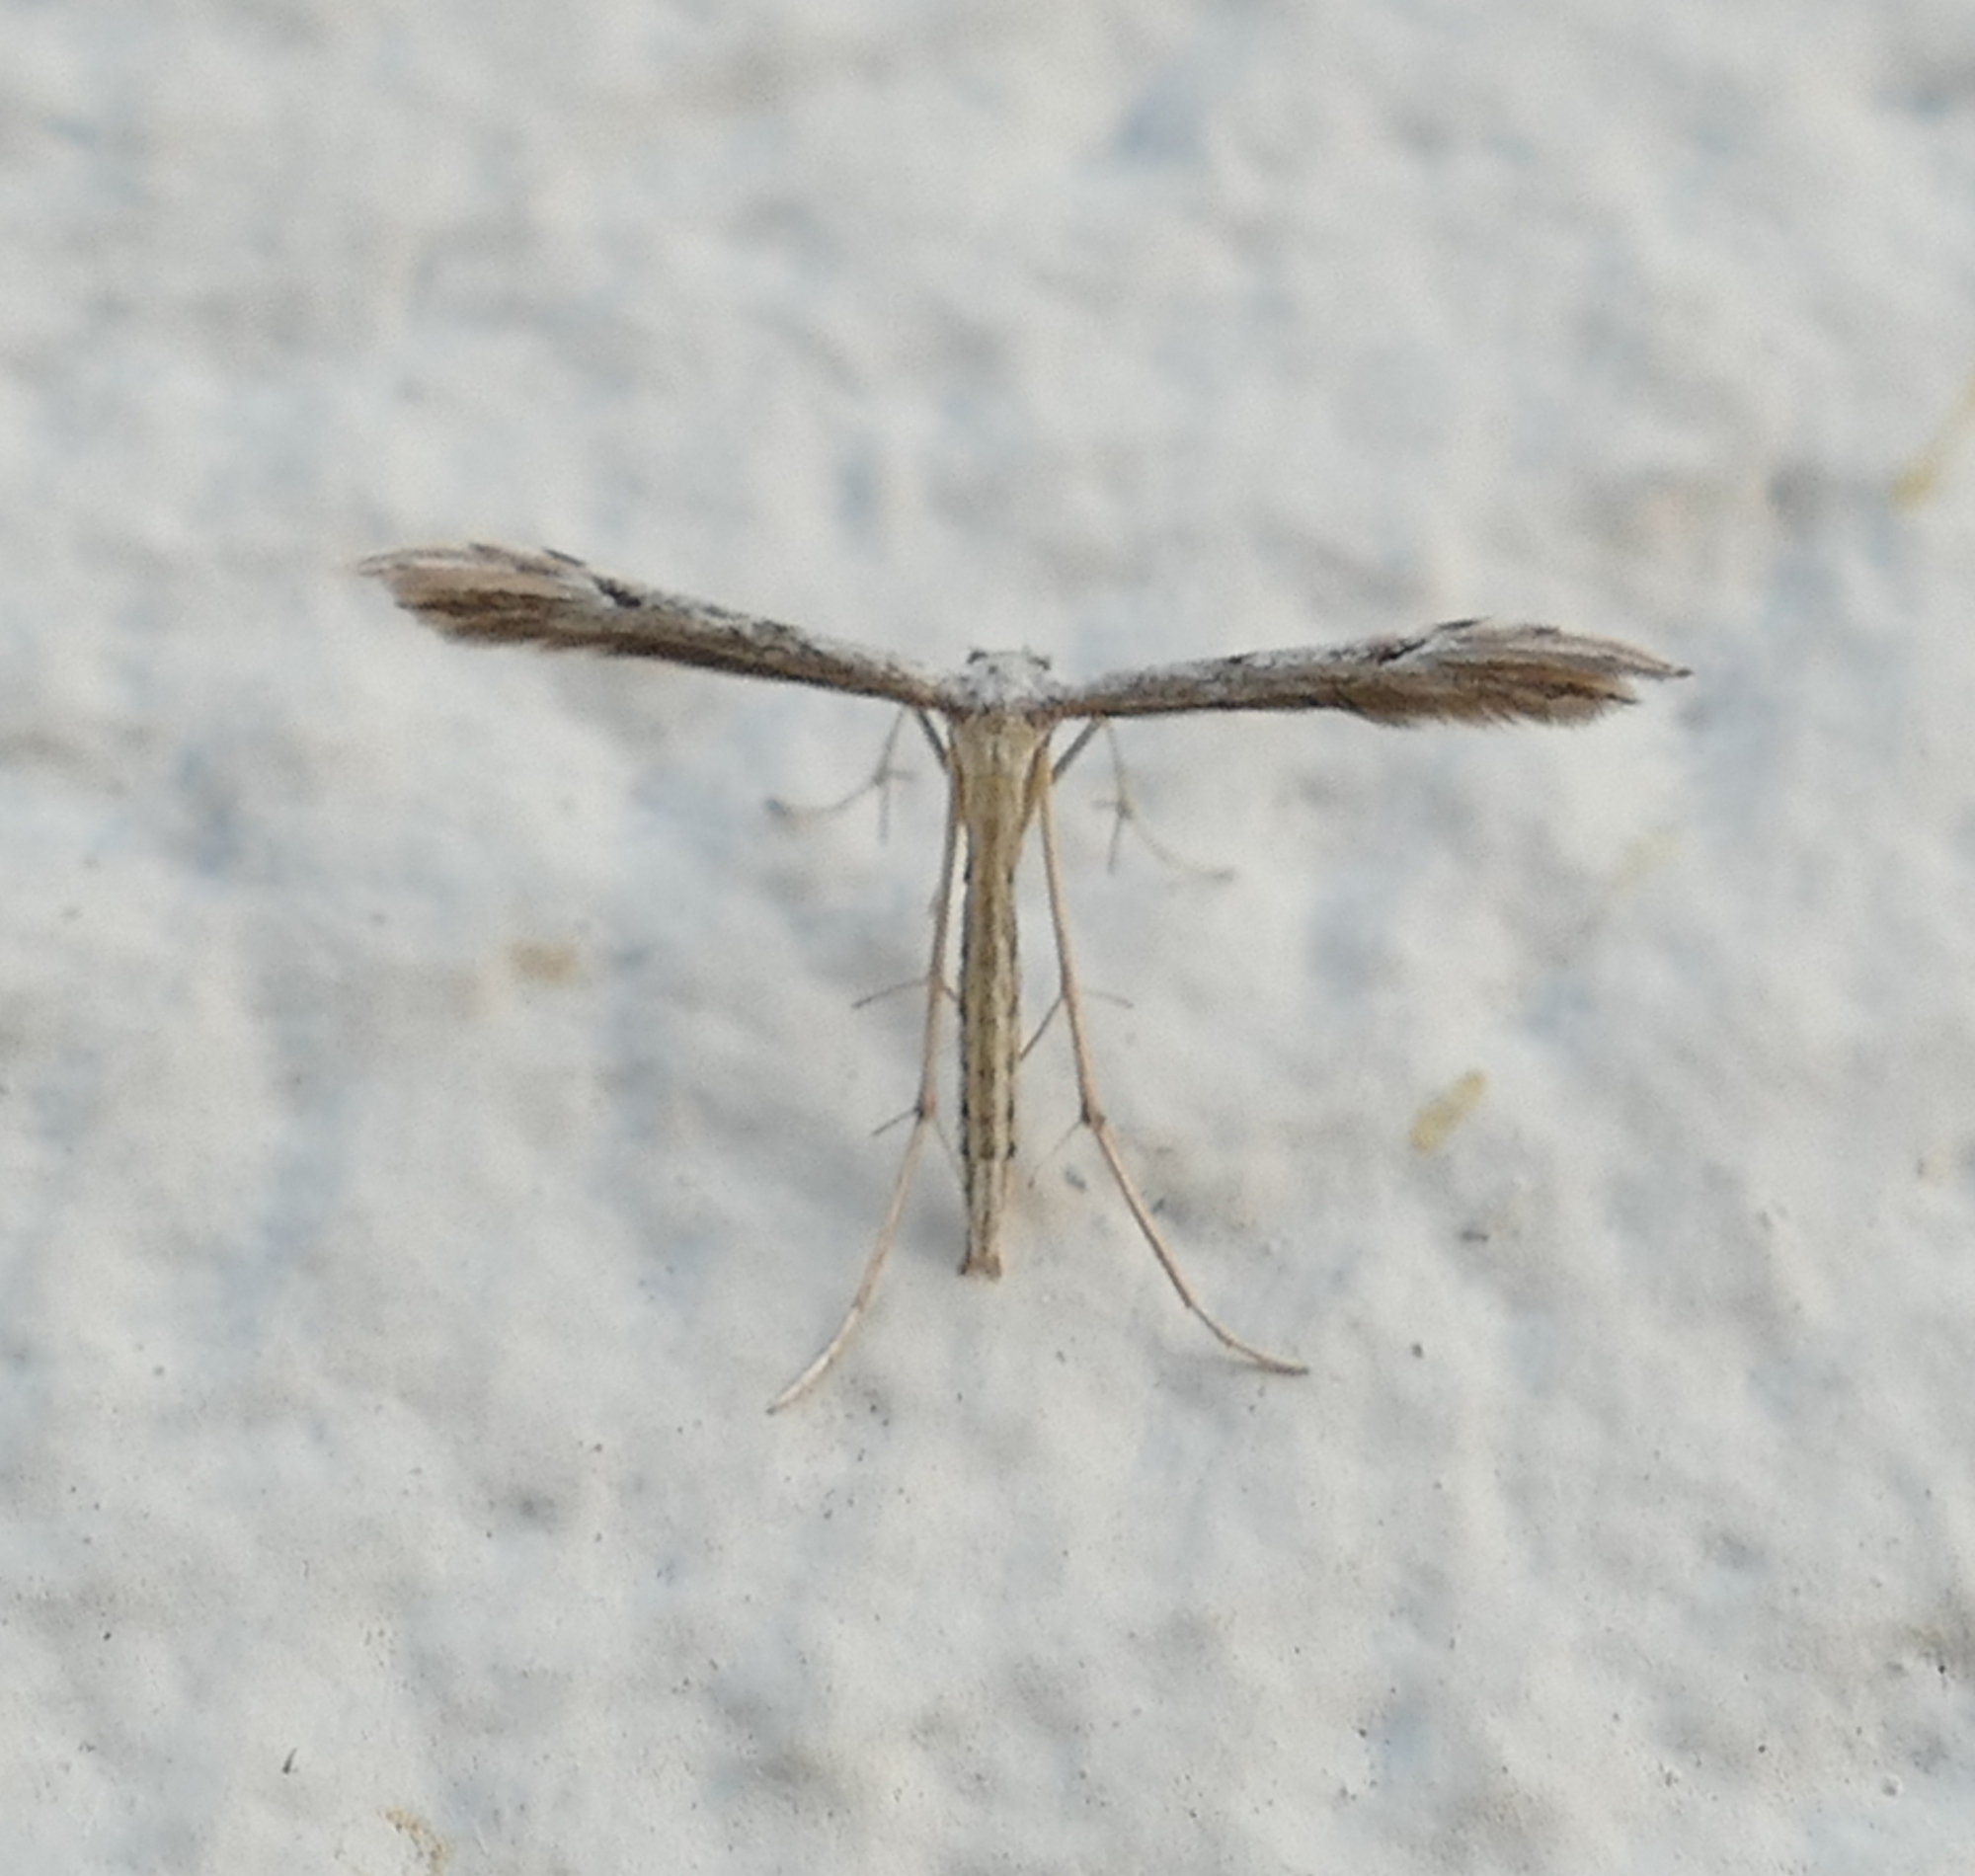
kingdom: Animalia
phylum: Arthropoda
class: Insecta
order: Lepidoptera
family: Pterophoridae
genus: Pselnophorus
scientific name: Pselnophorus belfragei
